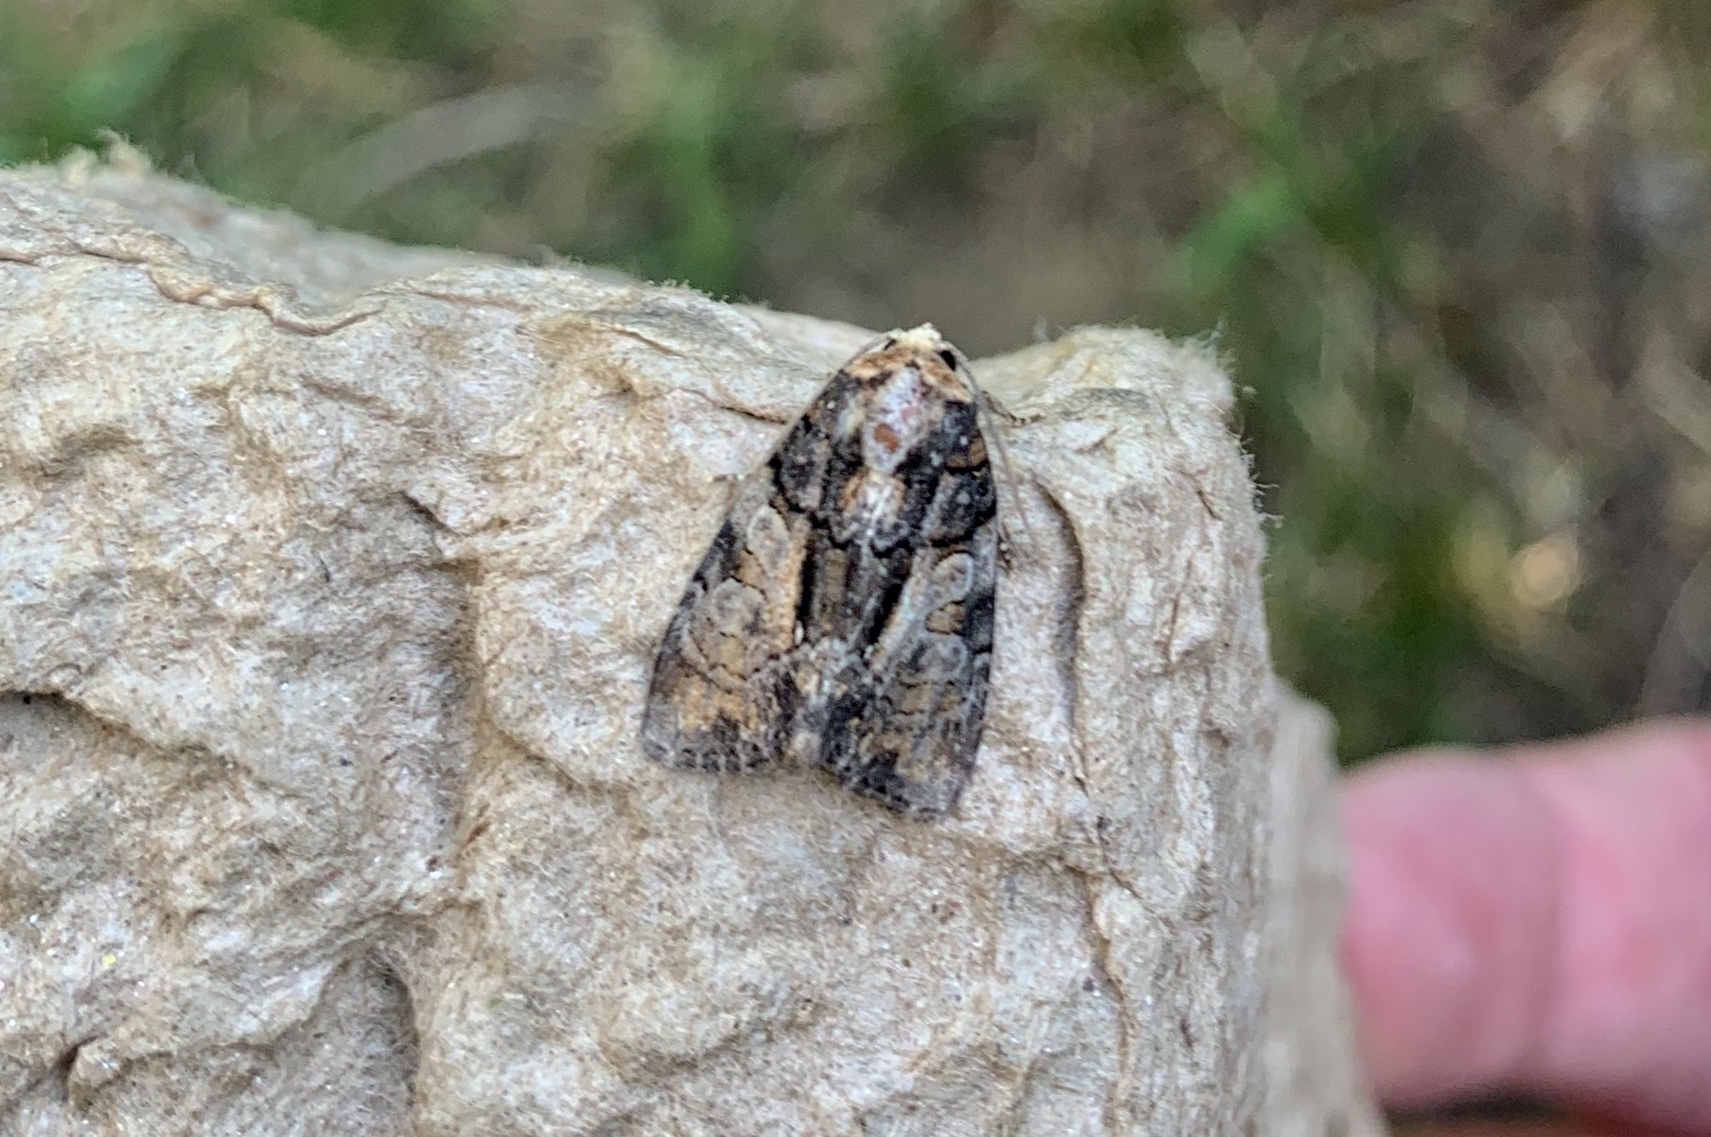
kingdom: Animalia
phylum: Arthropoda
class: Insecta
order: Lepidoptera
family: Noctuidae
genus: Chytonix
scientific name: Chytonix palliatricula
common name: Cloaked marvel
